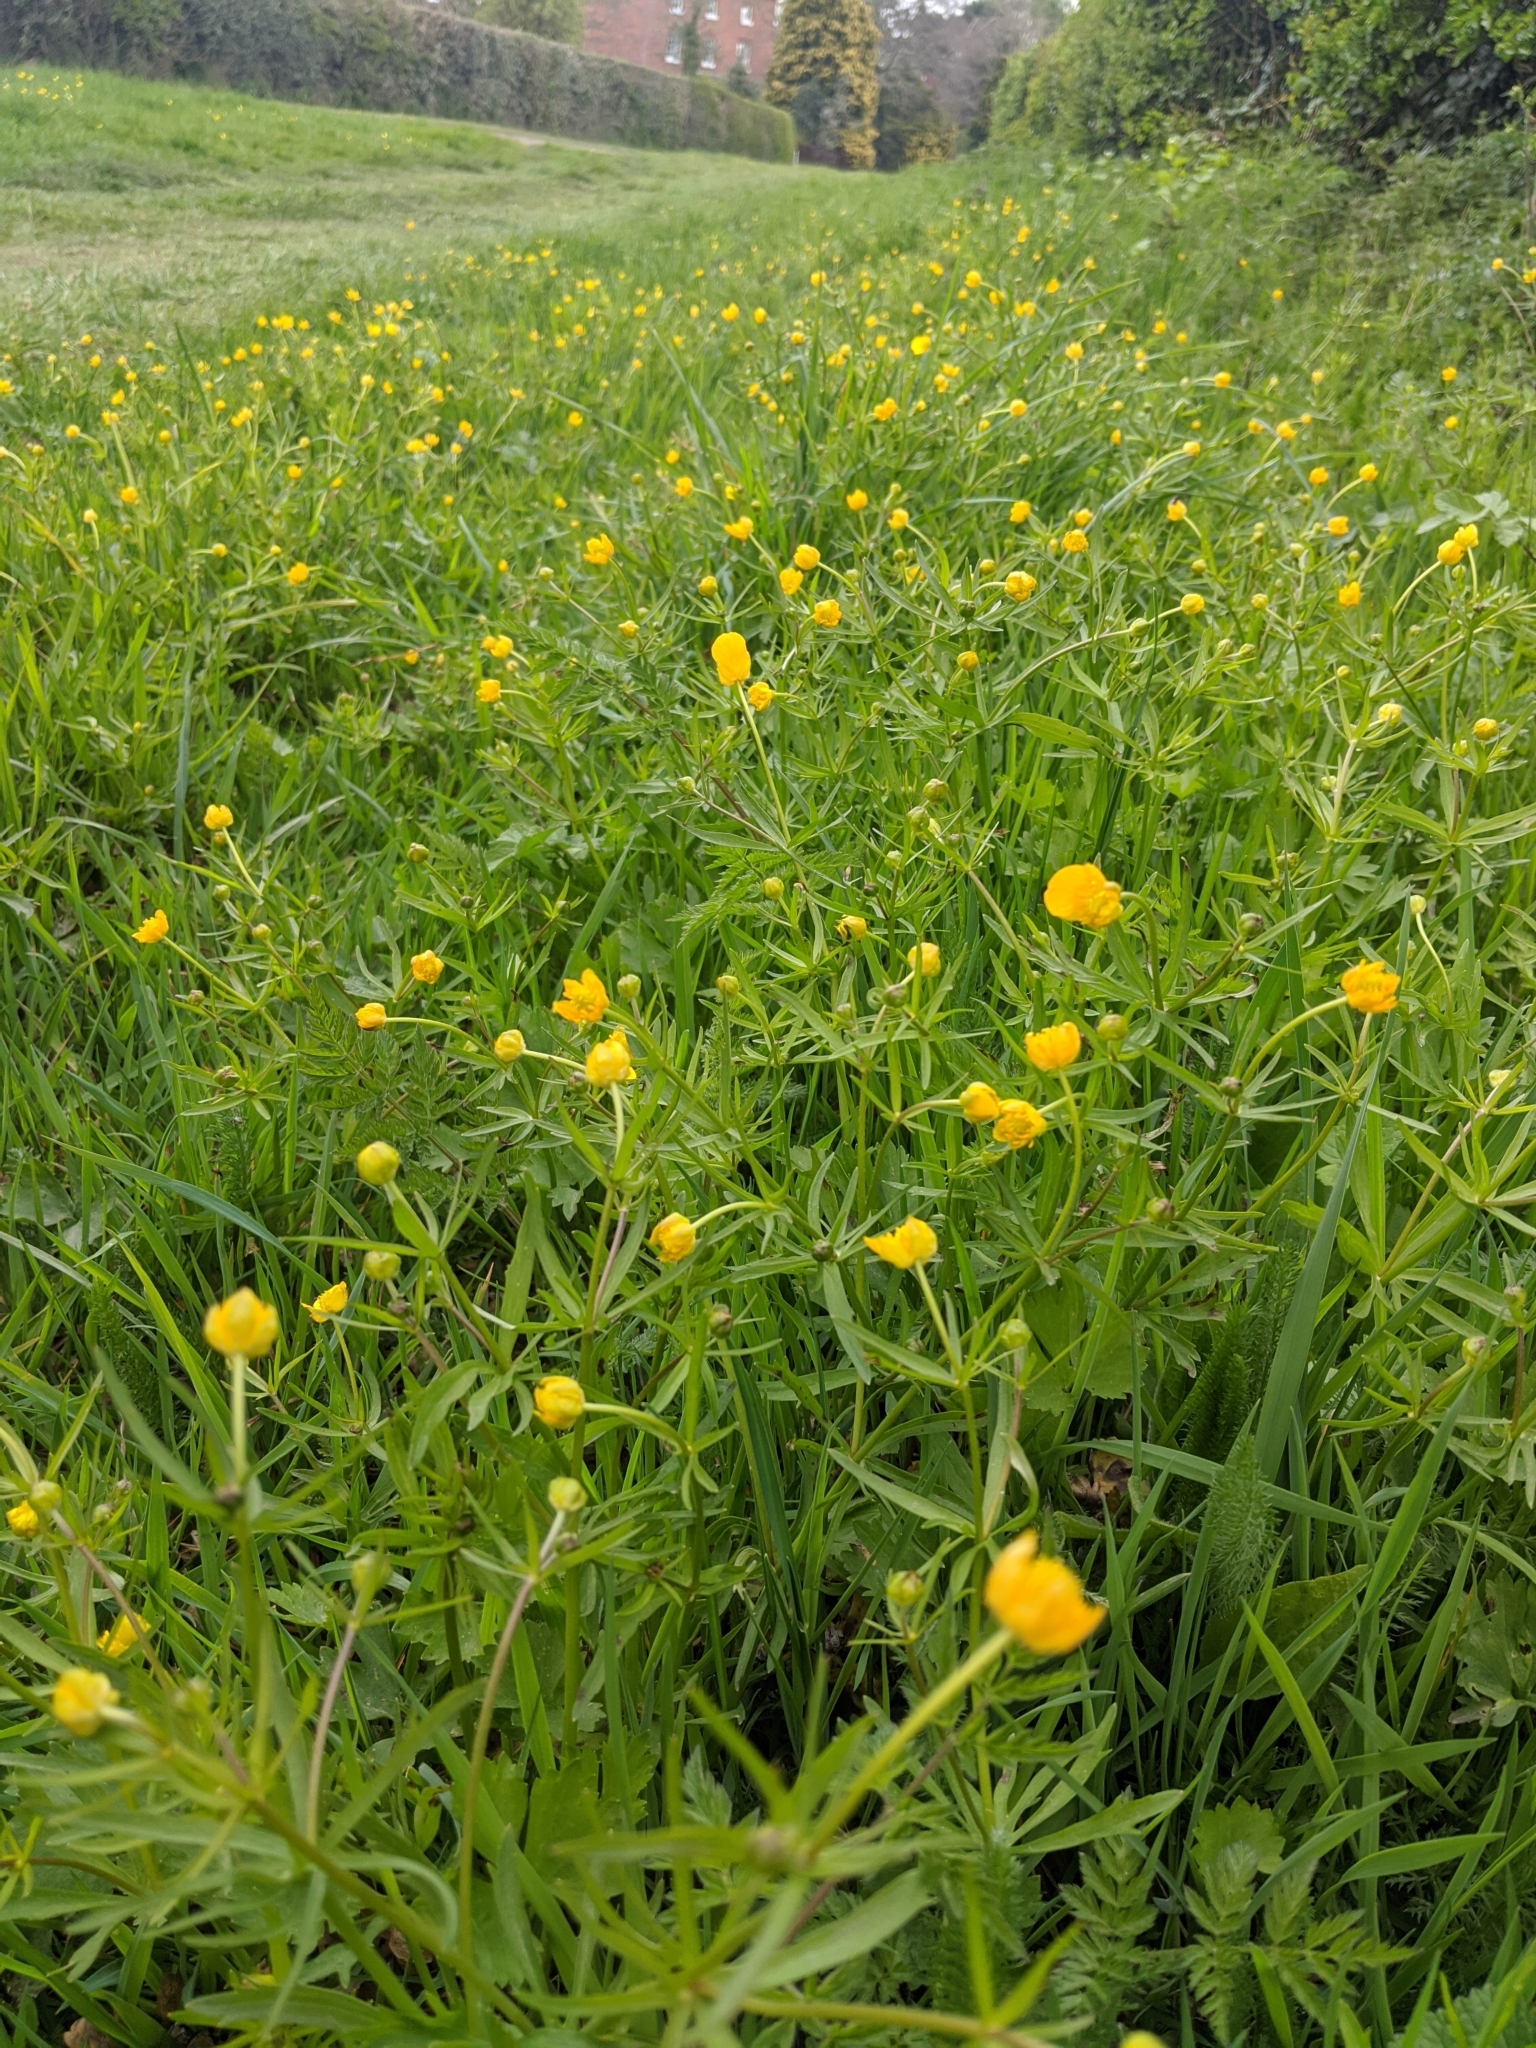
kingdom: Plantae
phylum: Tracheophyta
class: Magnoliopsida
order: Ranunculales
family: Ranunculaceae
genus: Ranunculus
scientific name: Ranunculus auricomus
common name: Goldilocks buttercup
